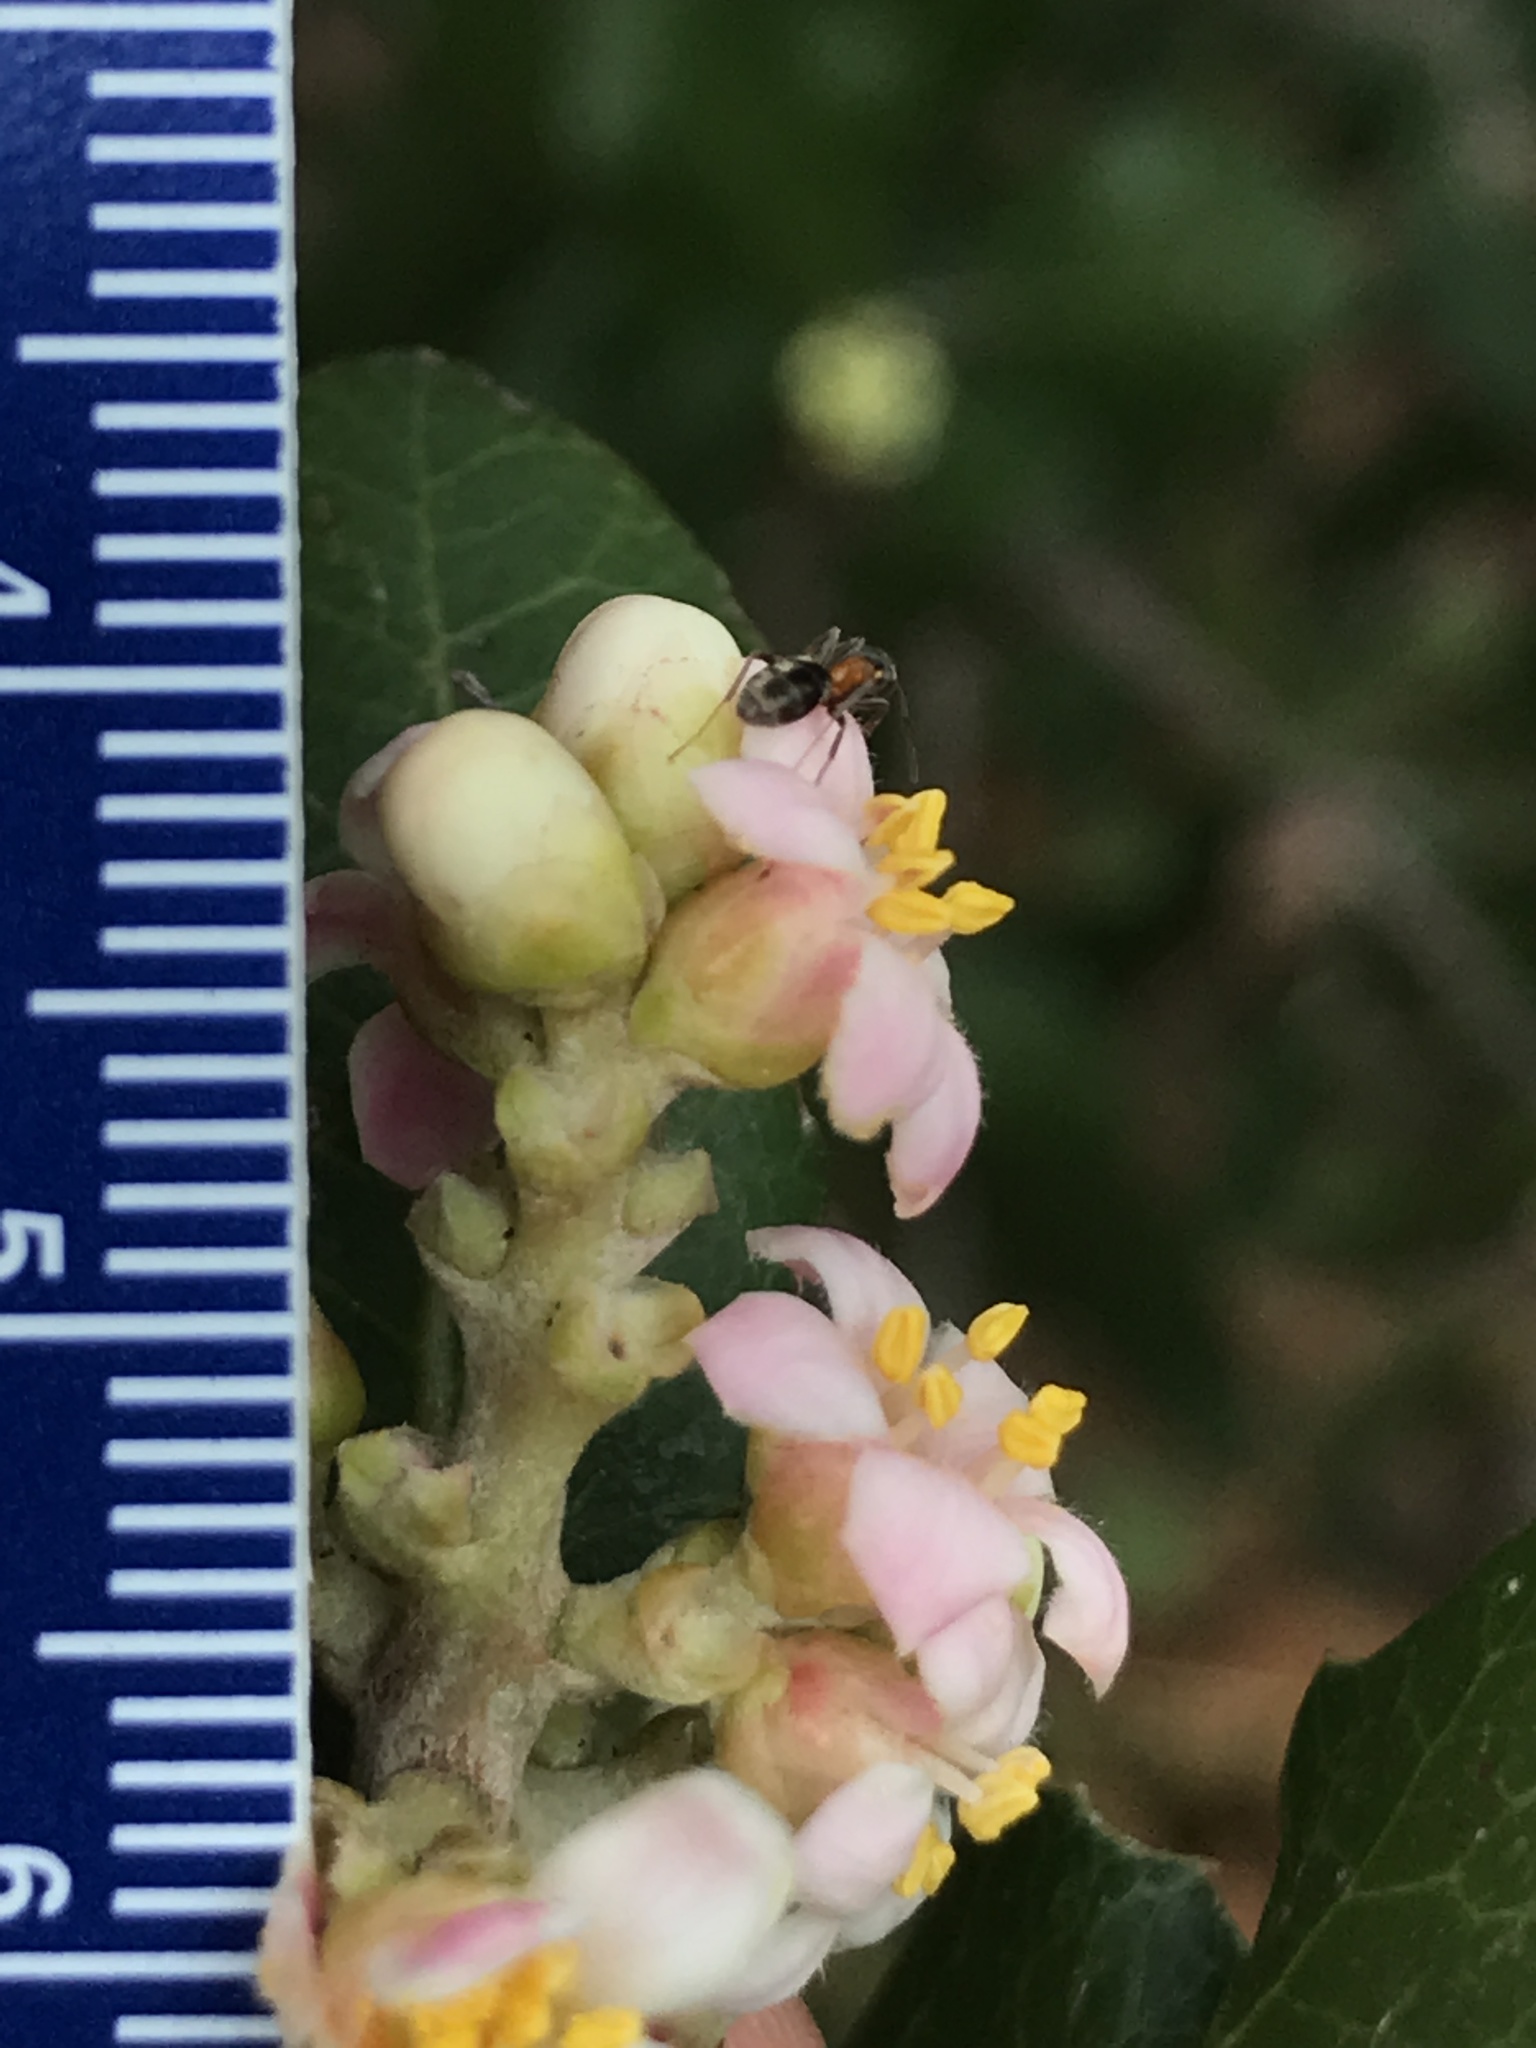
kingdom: Plantae
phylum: Tracheophyta
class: Magnoliopsida
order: Sapindales
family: Anacardiaceae
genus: Rhus
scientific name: Rhus integrifolia
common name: Lemonade sumac
